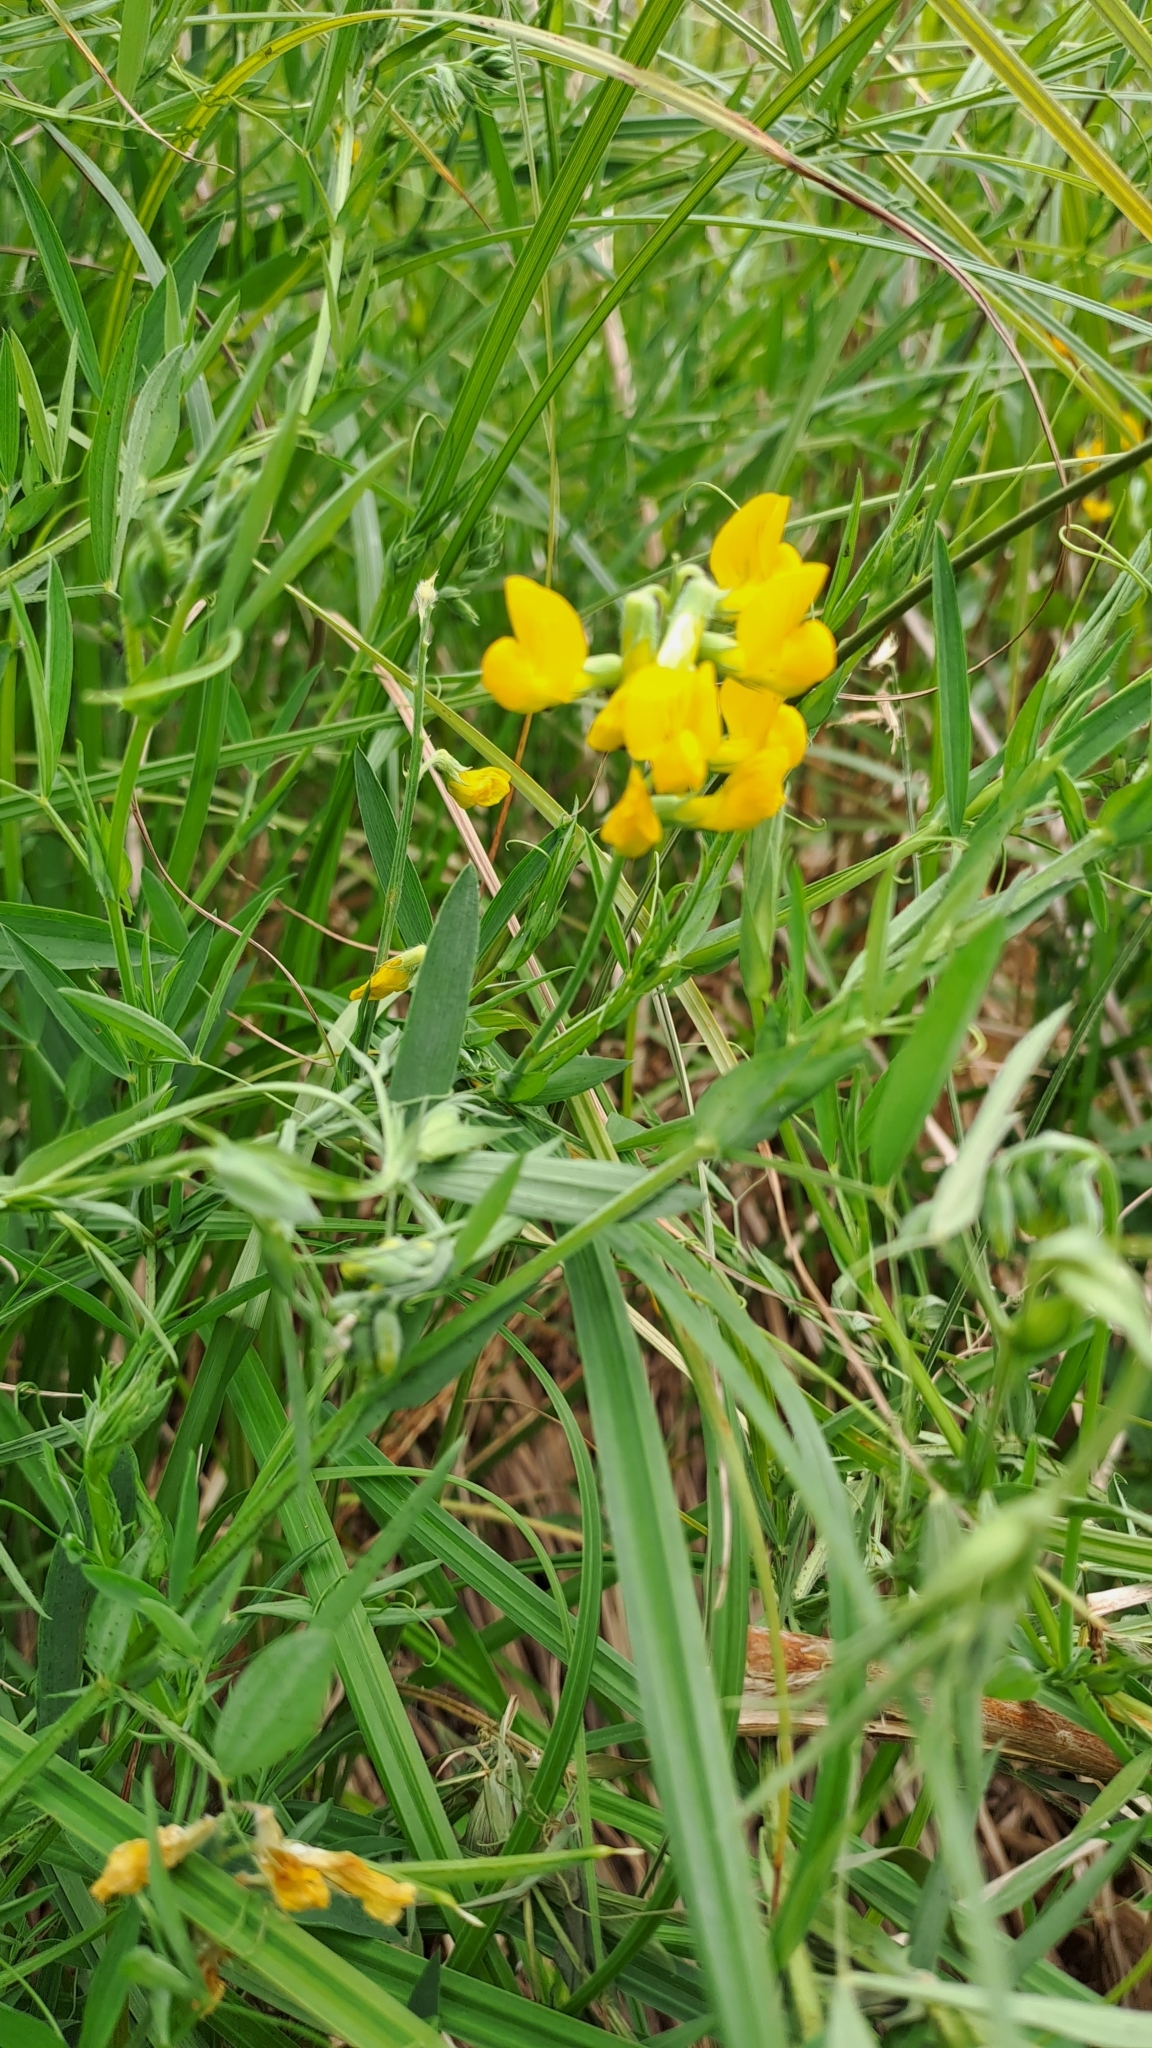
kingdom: Plantae
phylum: Tracheophyta
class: Magnoliopsida
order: Fabales
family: Fabaceae
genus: Lathyrus
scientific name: Lathyrus pratensis
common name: Meadow vetchling
